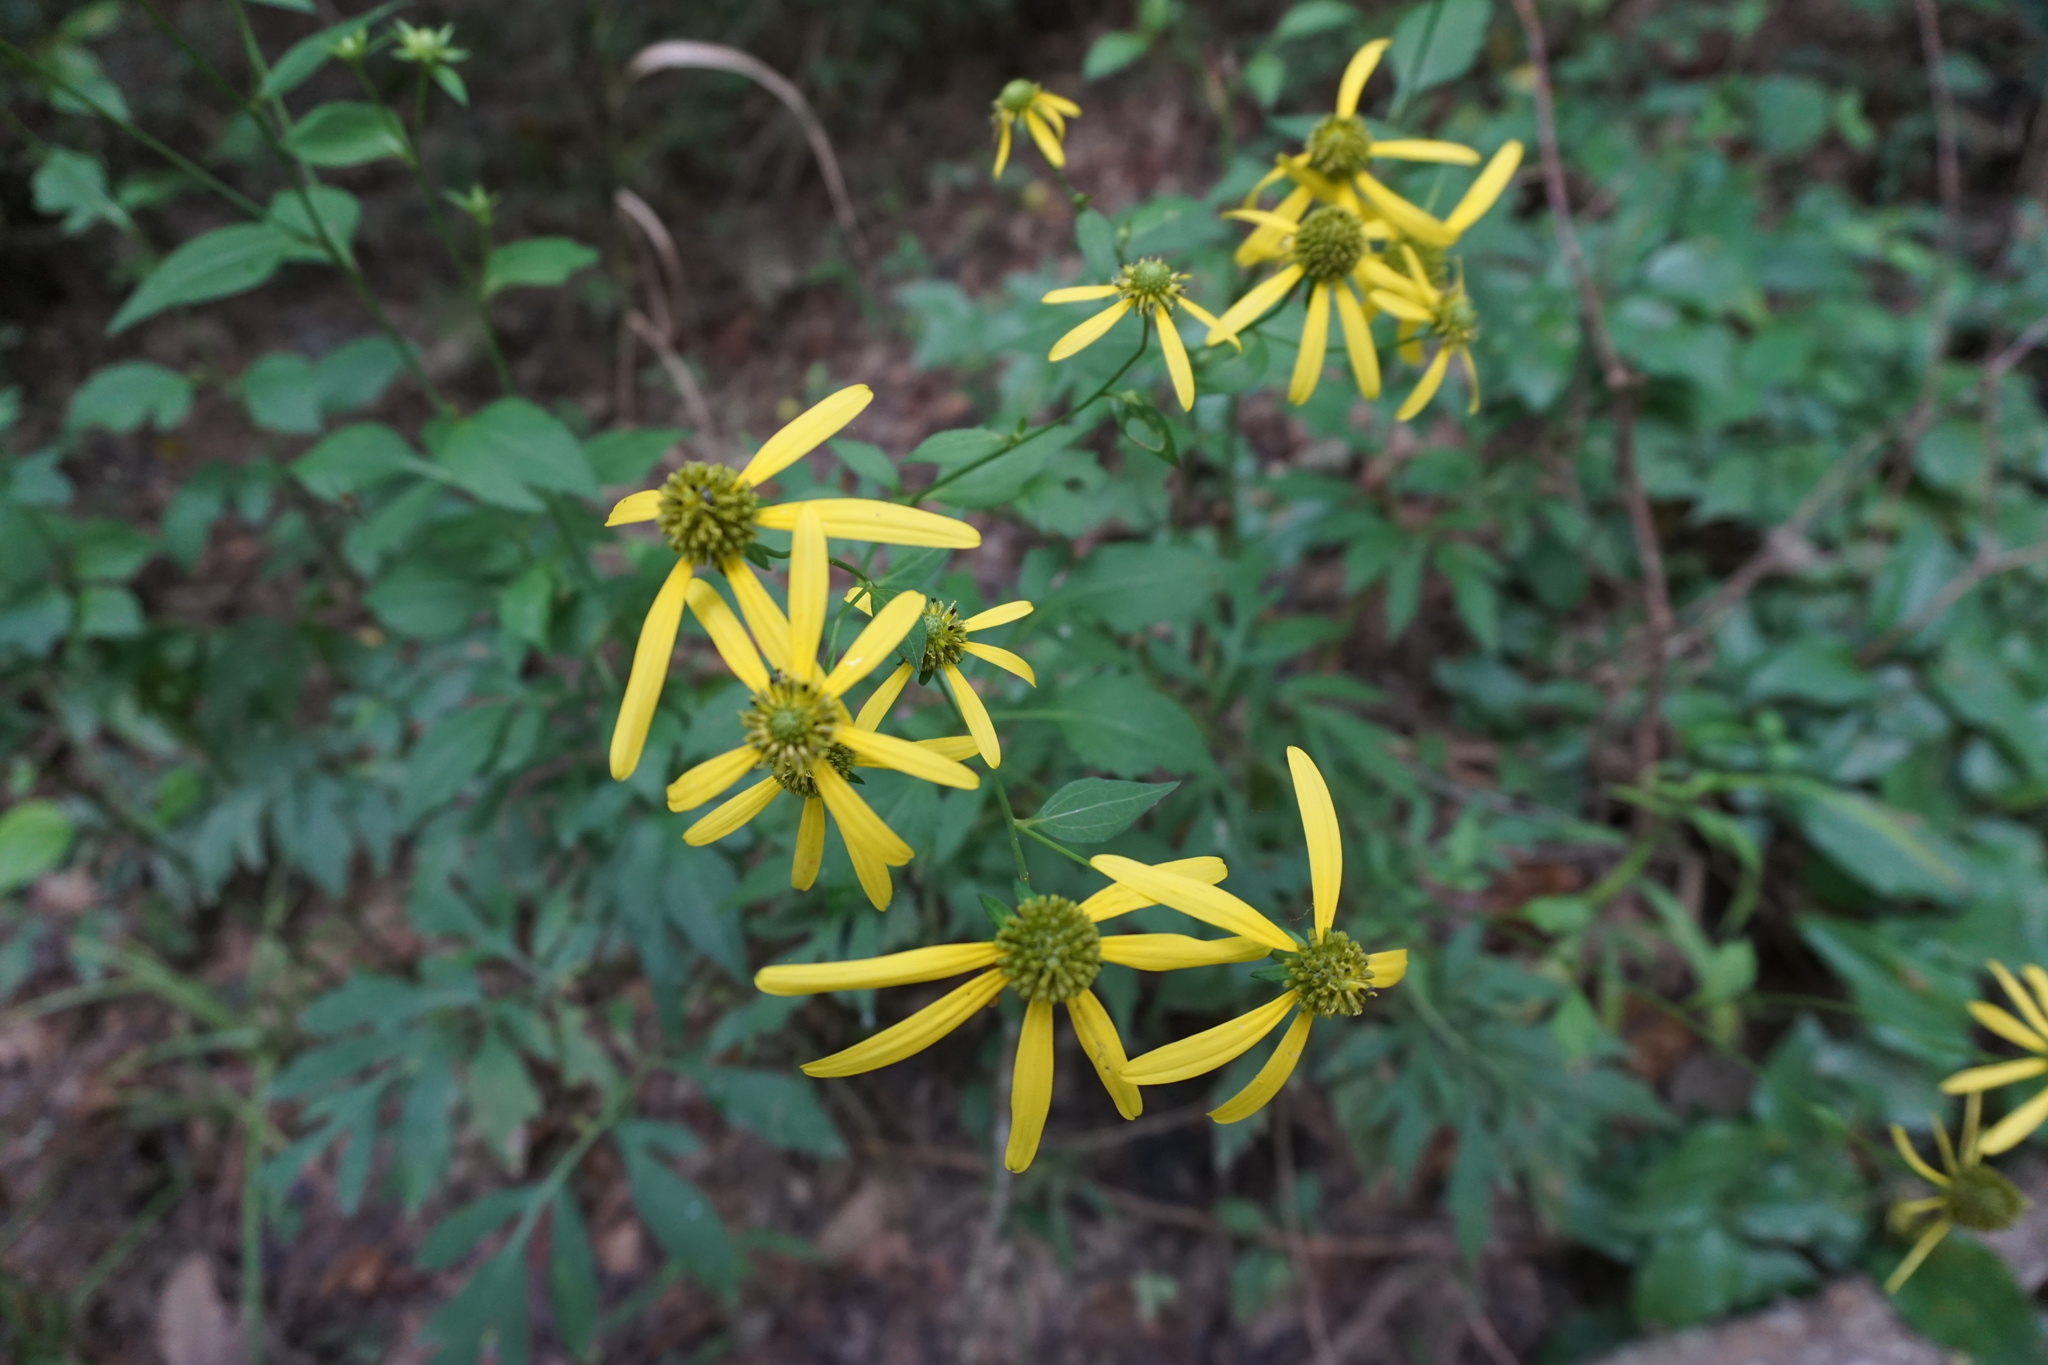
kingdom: Plantae
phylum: Tracheophyta
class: Magnoliopsida
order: Asterales
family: Asteraceae
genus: Rudbeckia
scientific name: Rudbeckia laciniata
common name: Coneflower
